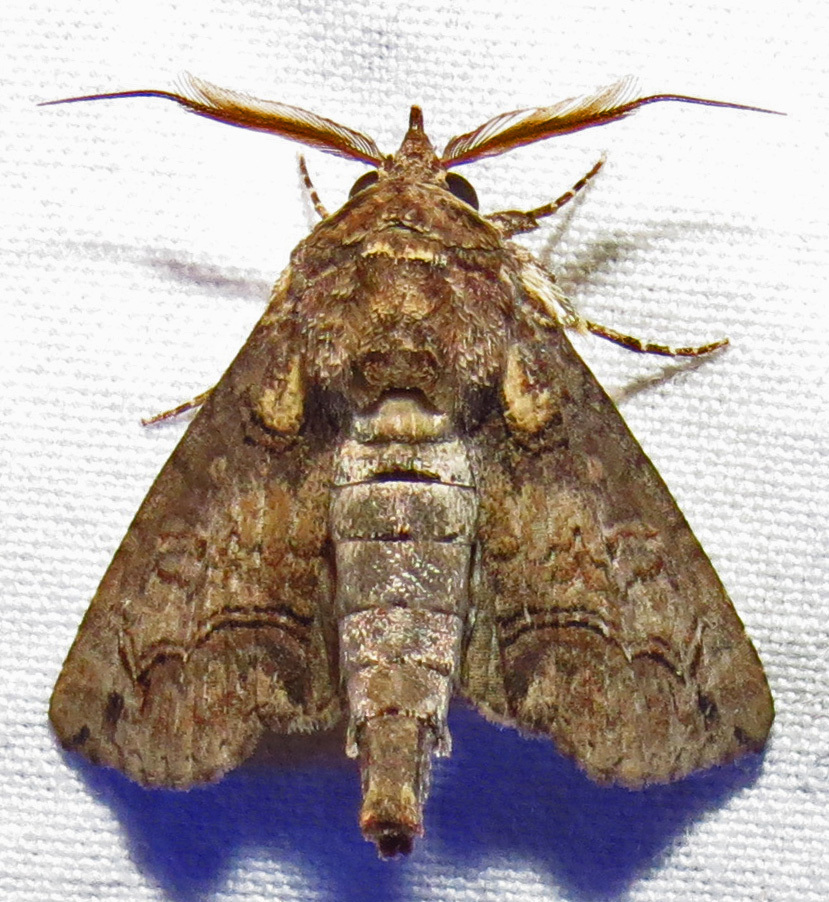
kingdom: Animalia
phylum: Arthropoda
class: Insecta
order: Lepidoptera
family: Euteliidae
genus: Paectes
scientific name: Paectes abrostoloides
